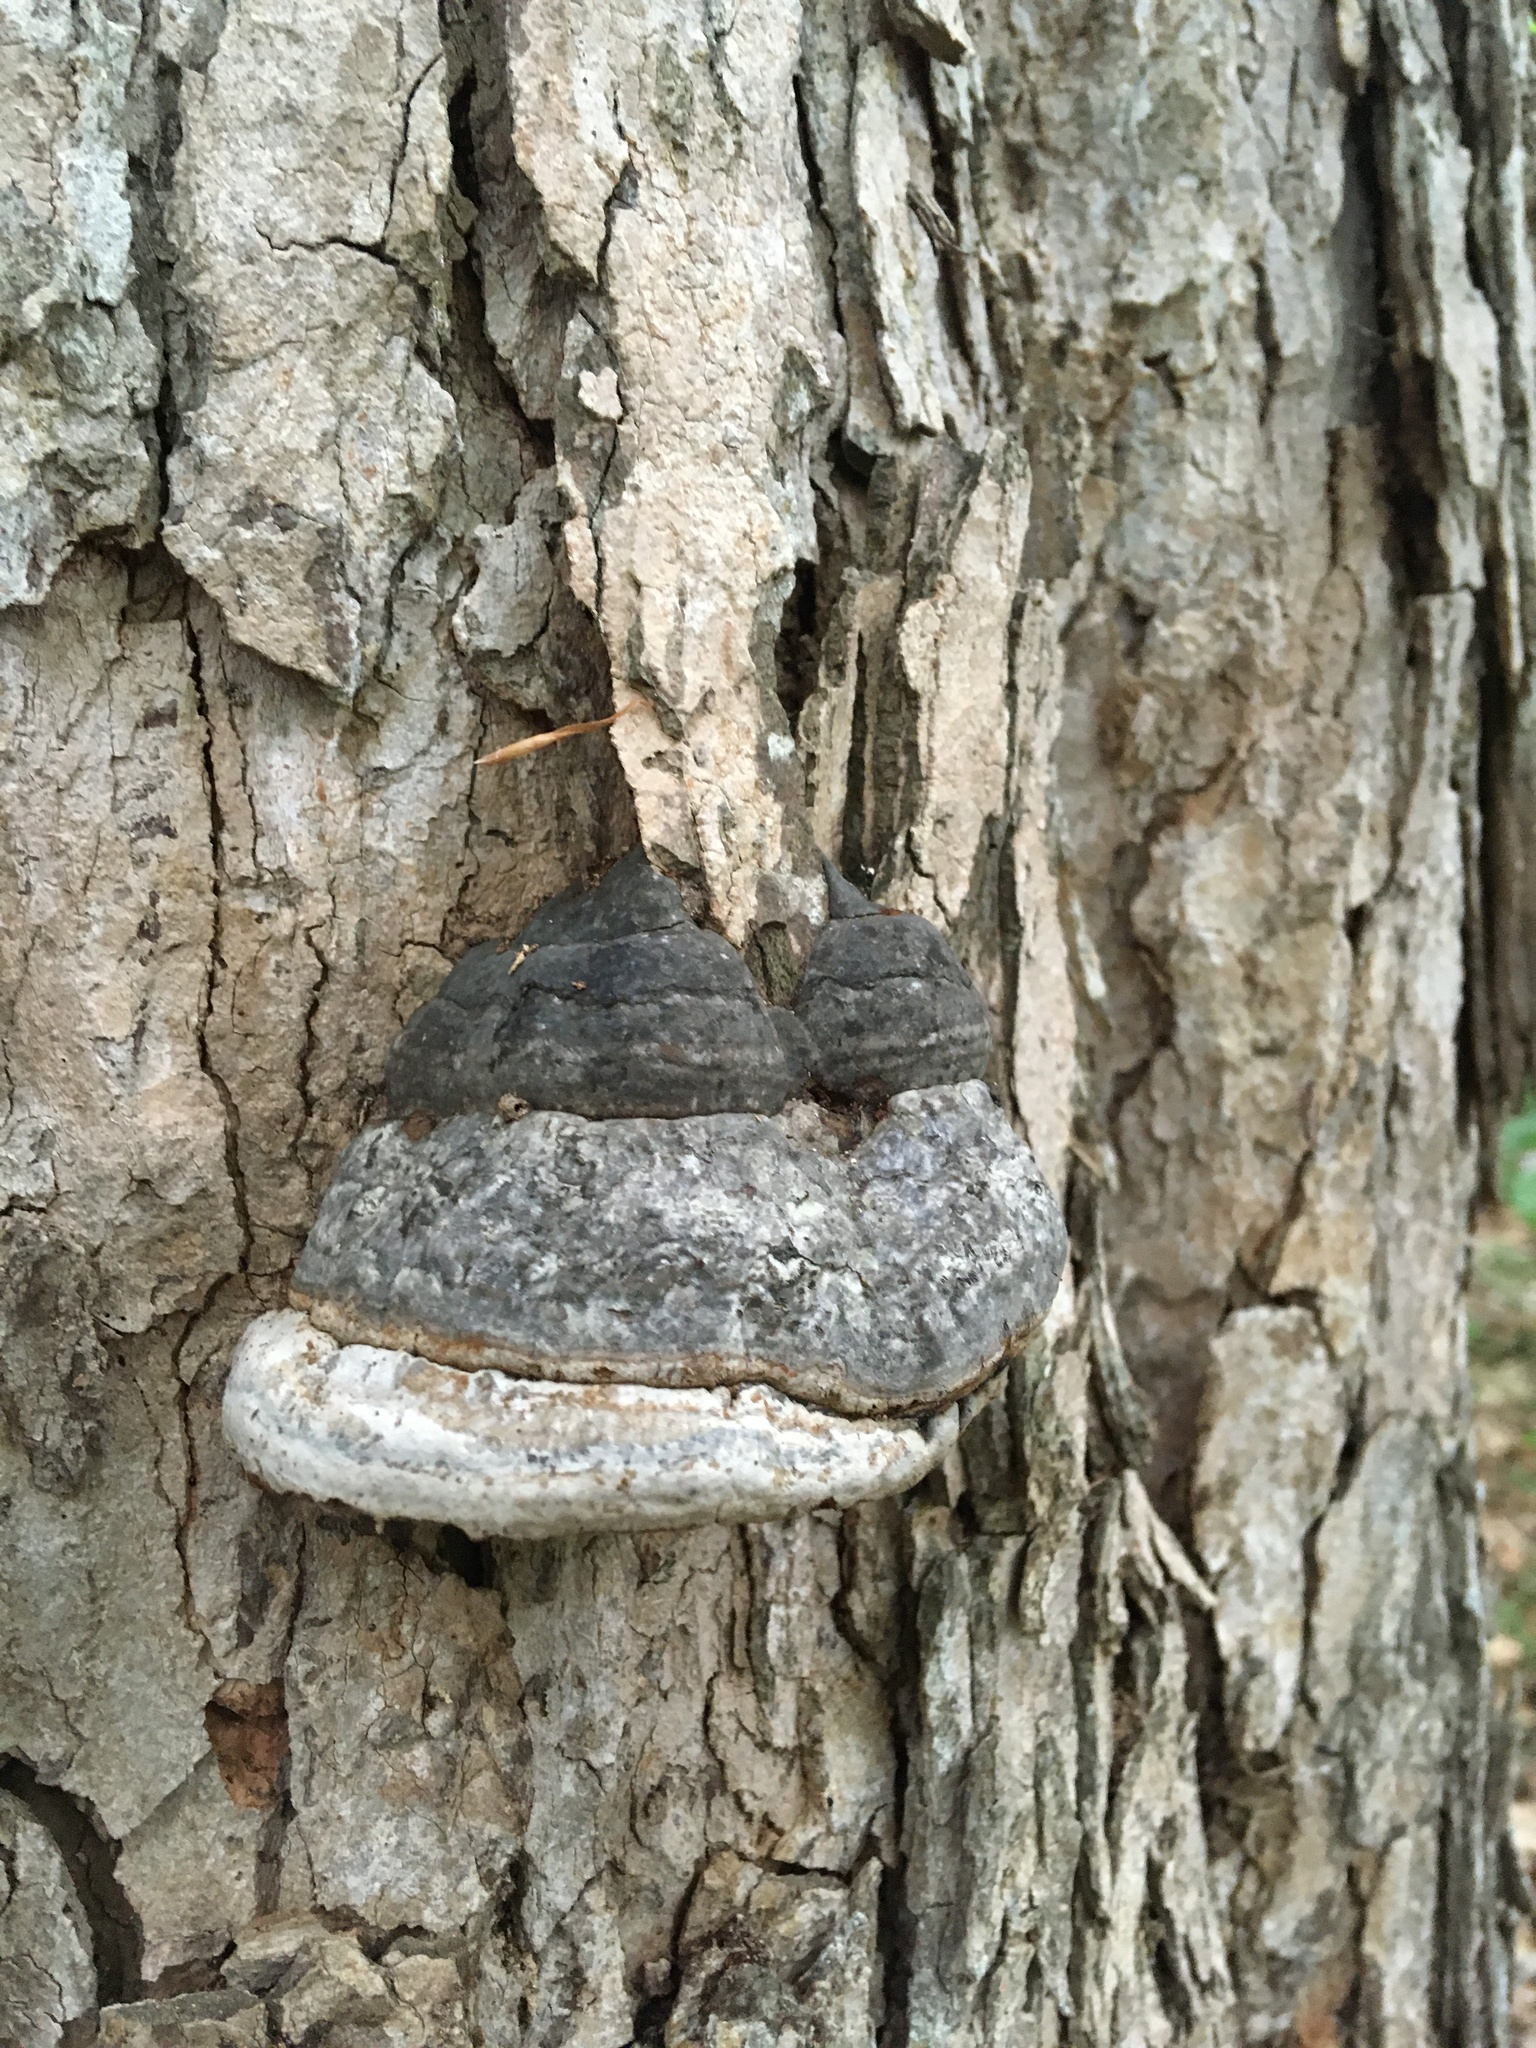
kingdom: Fungi
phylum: Basidiomycota
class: Agaricomycetes
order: Polyporales
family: Polyporaceae
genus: Fomes
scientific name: Fomes fomentarius
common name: Hoof fungus
